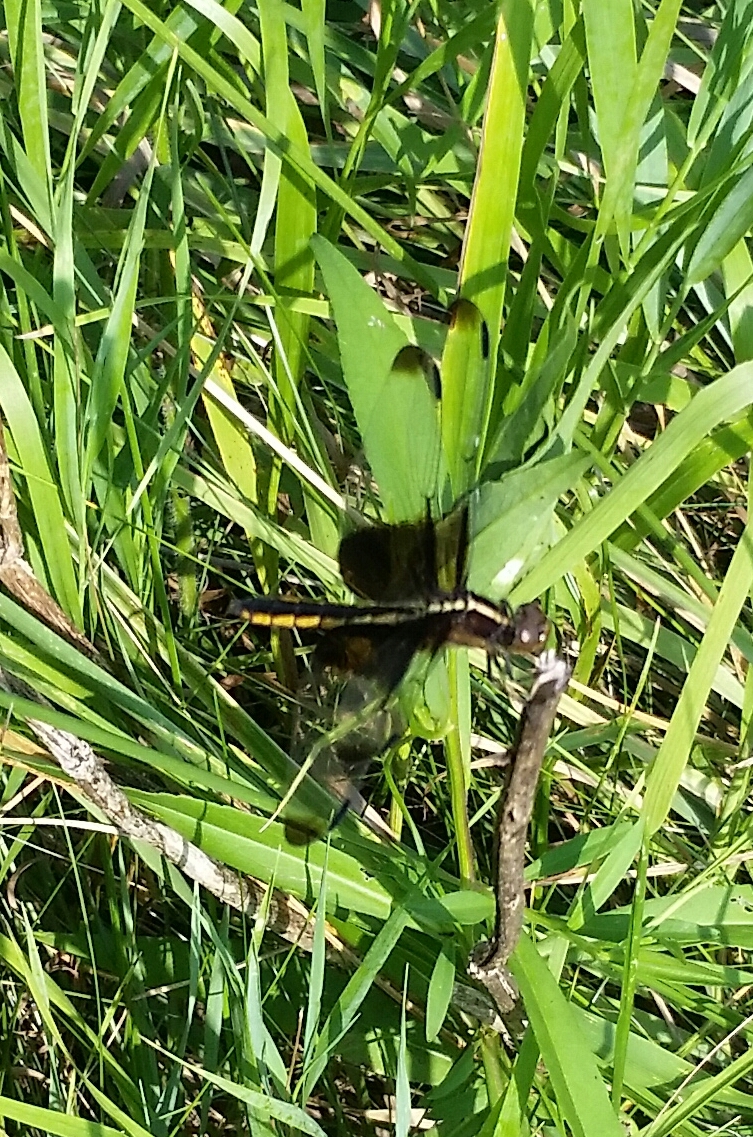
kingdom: Animalia
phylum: Arthropoda
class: Insecta
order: Odonata
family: Libellulidae
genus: Libellula
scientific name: Libellula luctuosa
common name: Widow skimmer
